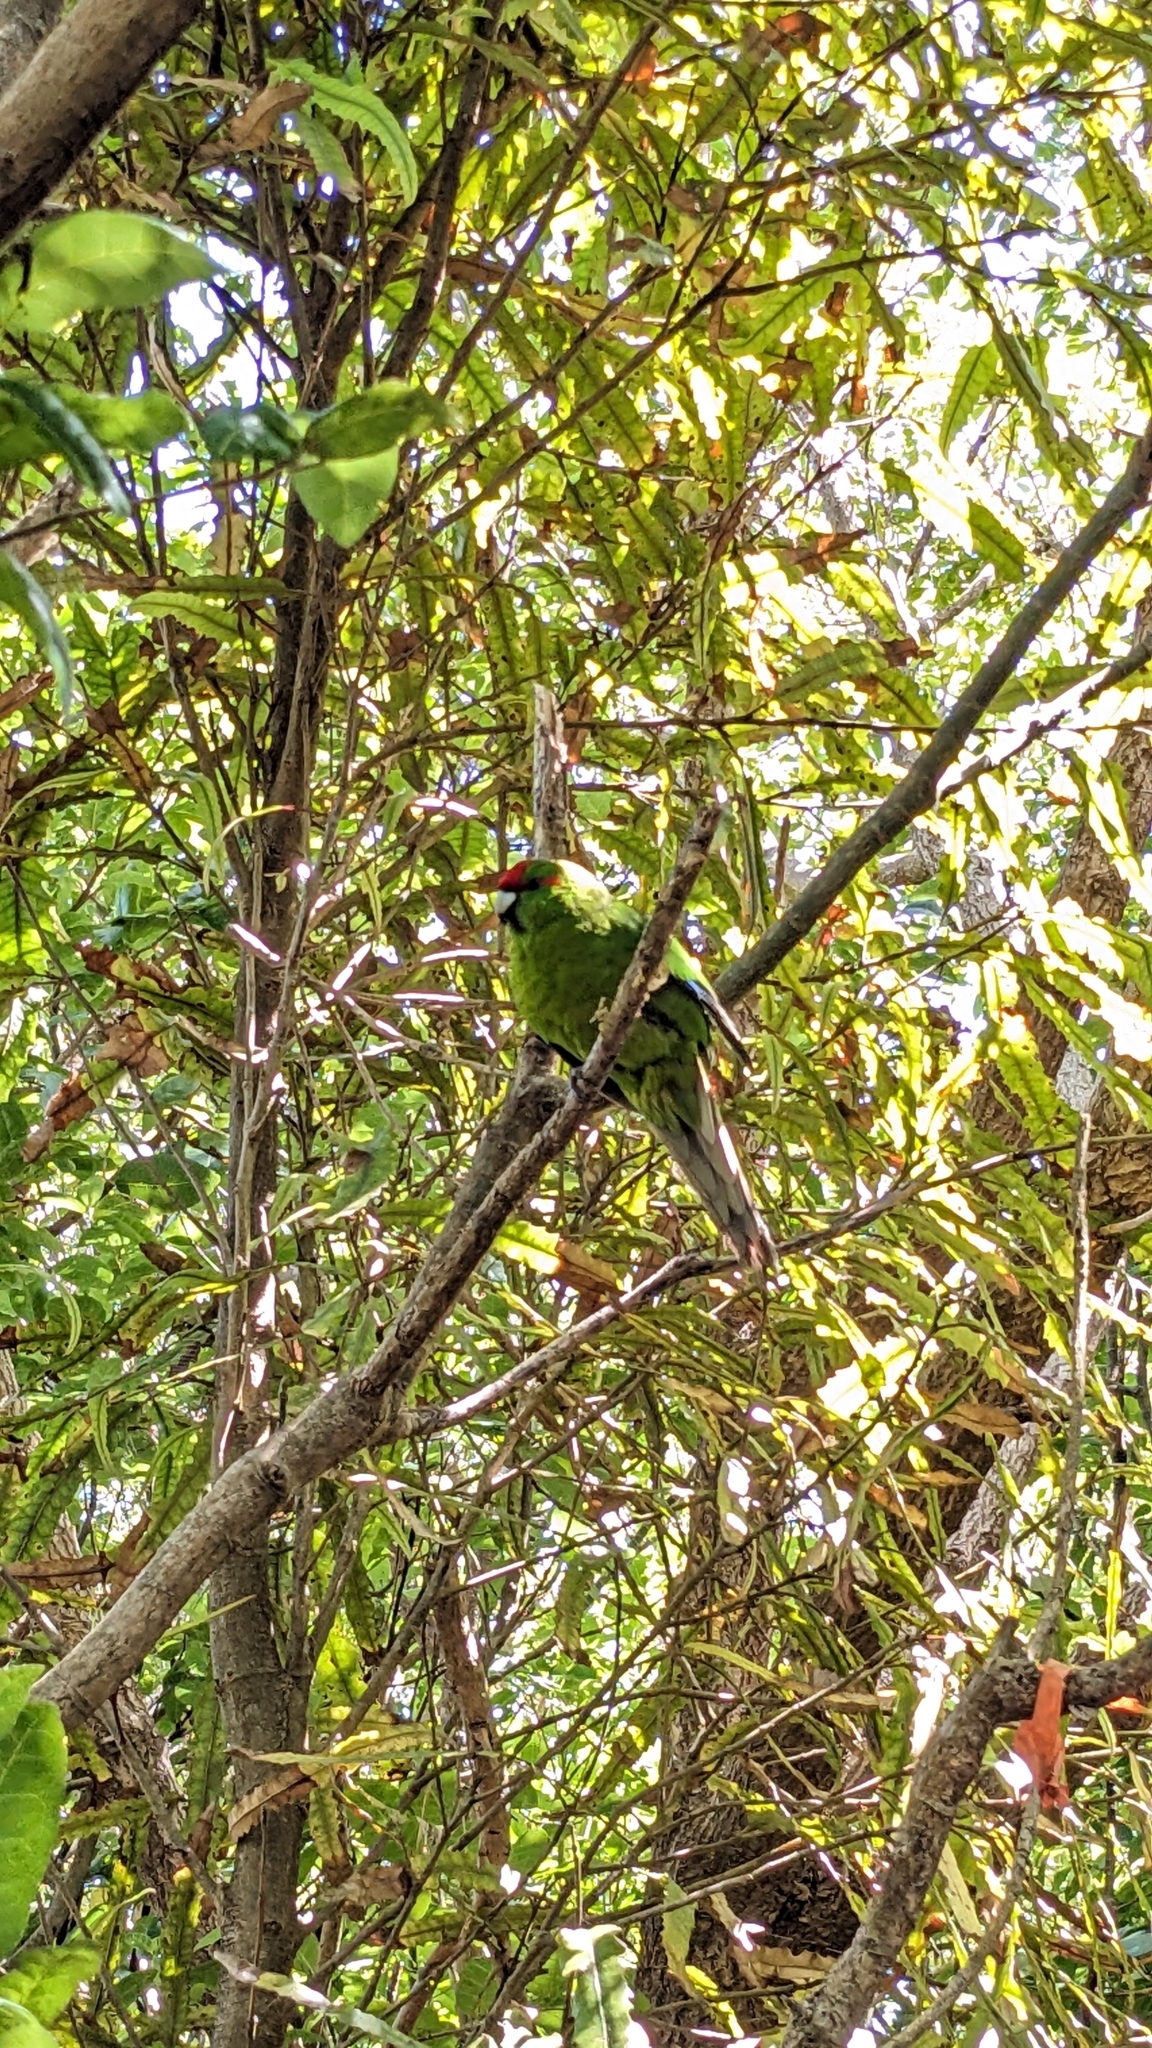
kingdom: Animalia
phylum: Chordata
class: Aves
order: Psittaciformes
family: Psittacidae
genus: Cyanoramphus
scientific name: Cyanoramphus novaezelandiae
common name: Red-fronted parakeet
